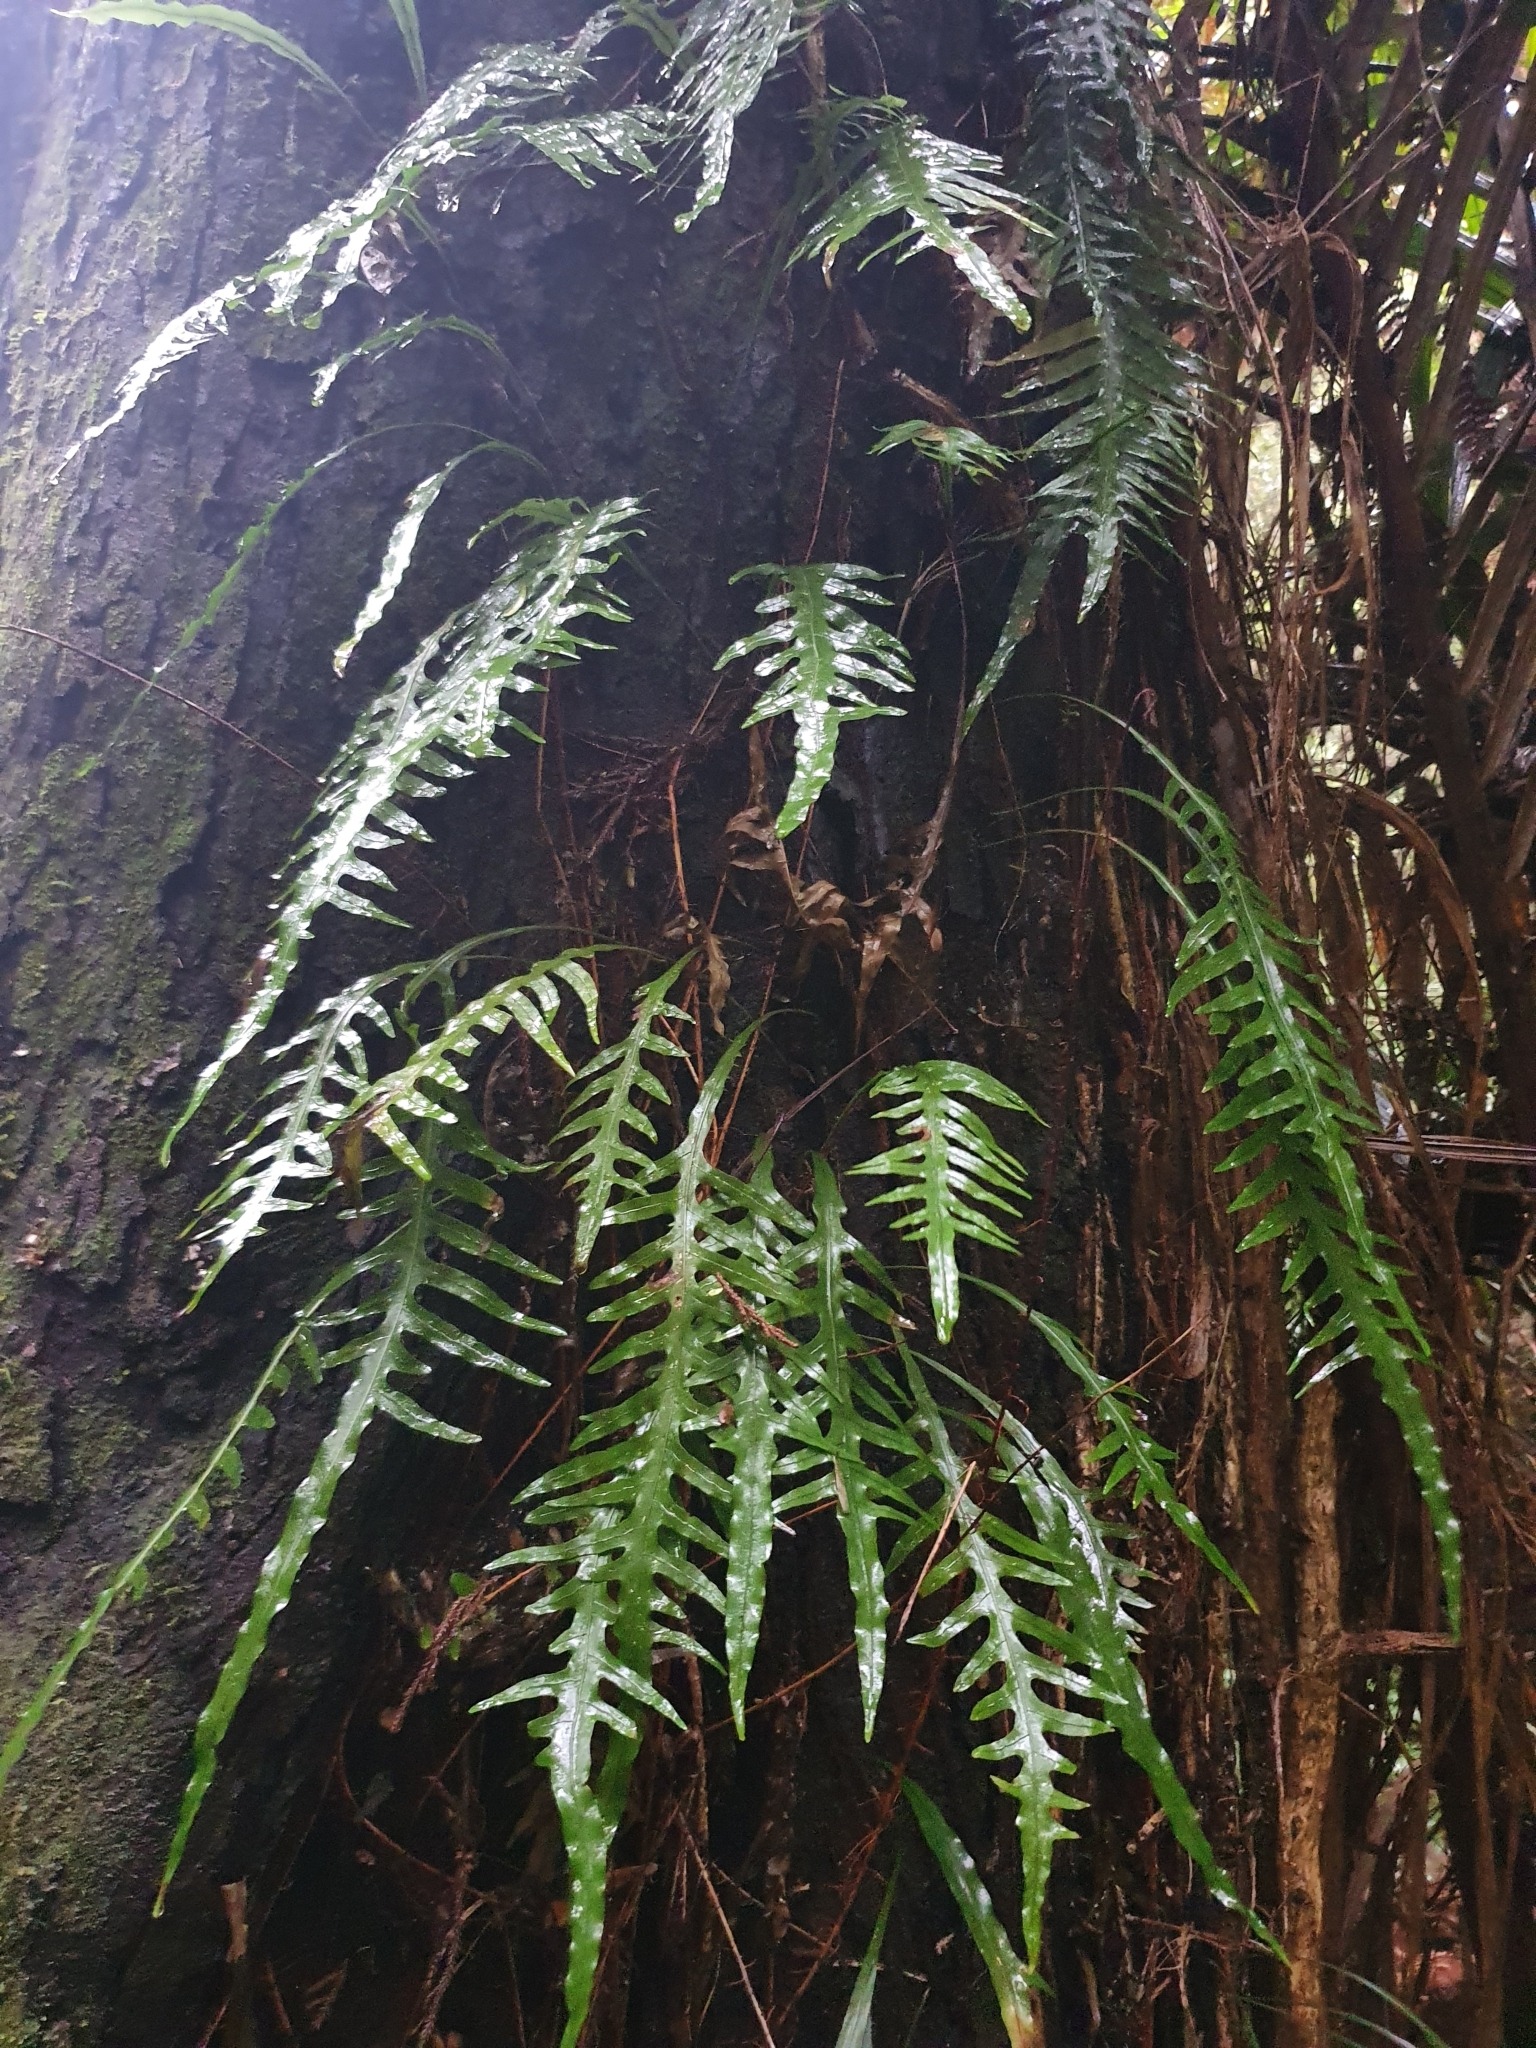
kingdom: Plantae
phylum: Tracheophyta
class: Polypodiopsida
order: Polypodiales
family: Polypodiaceae
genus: Lecanopteris
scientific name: Lecanopteris scandens
